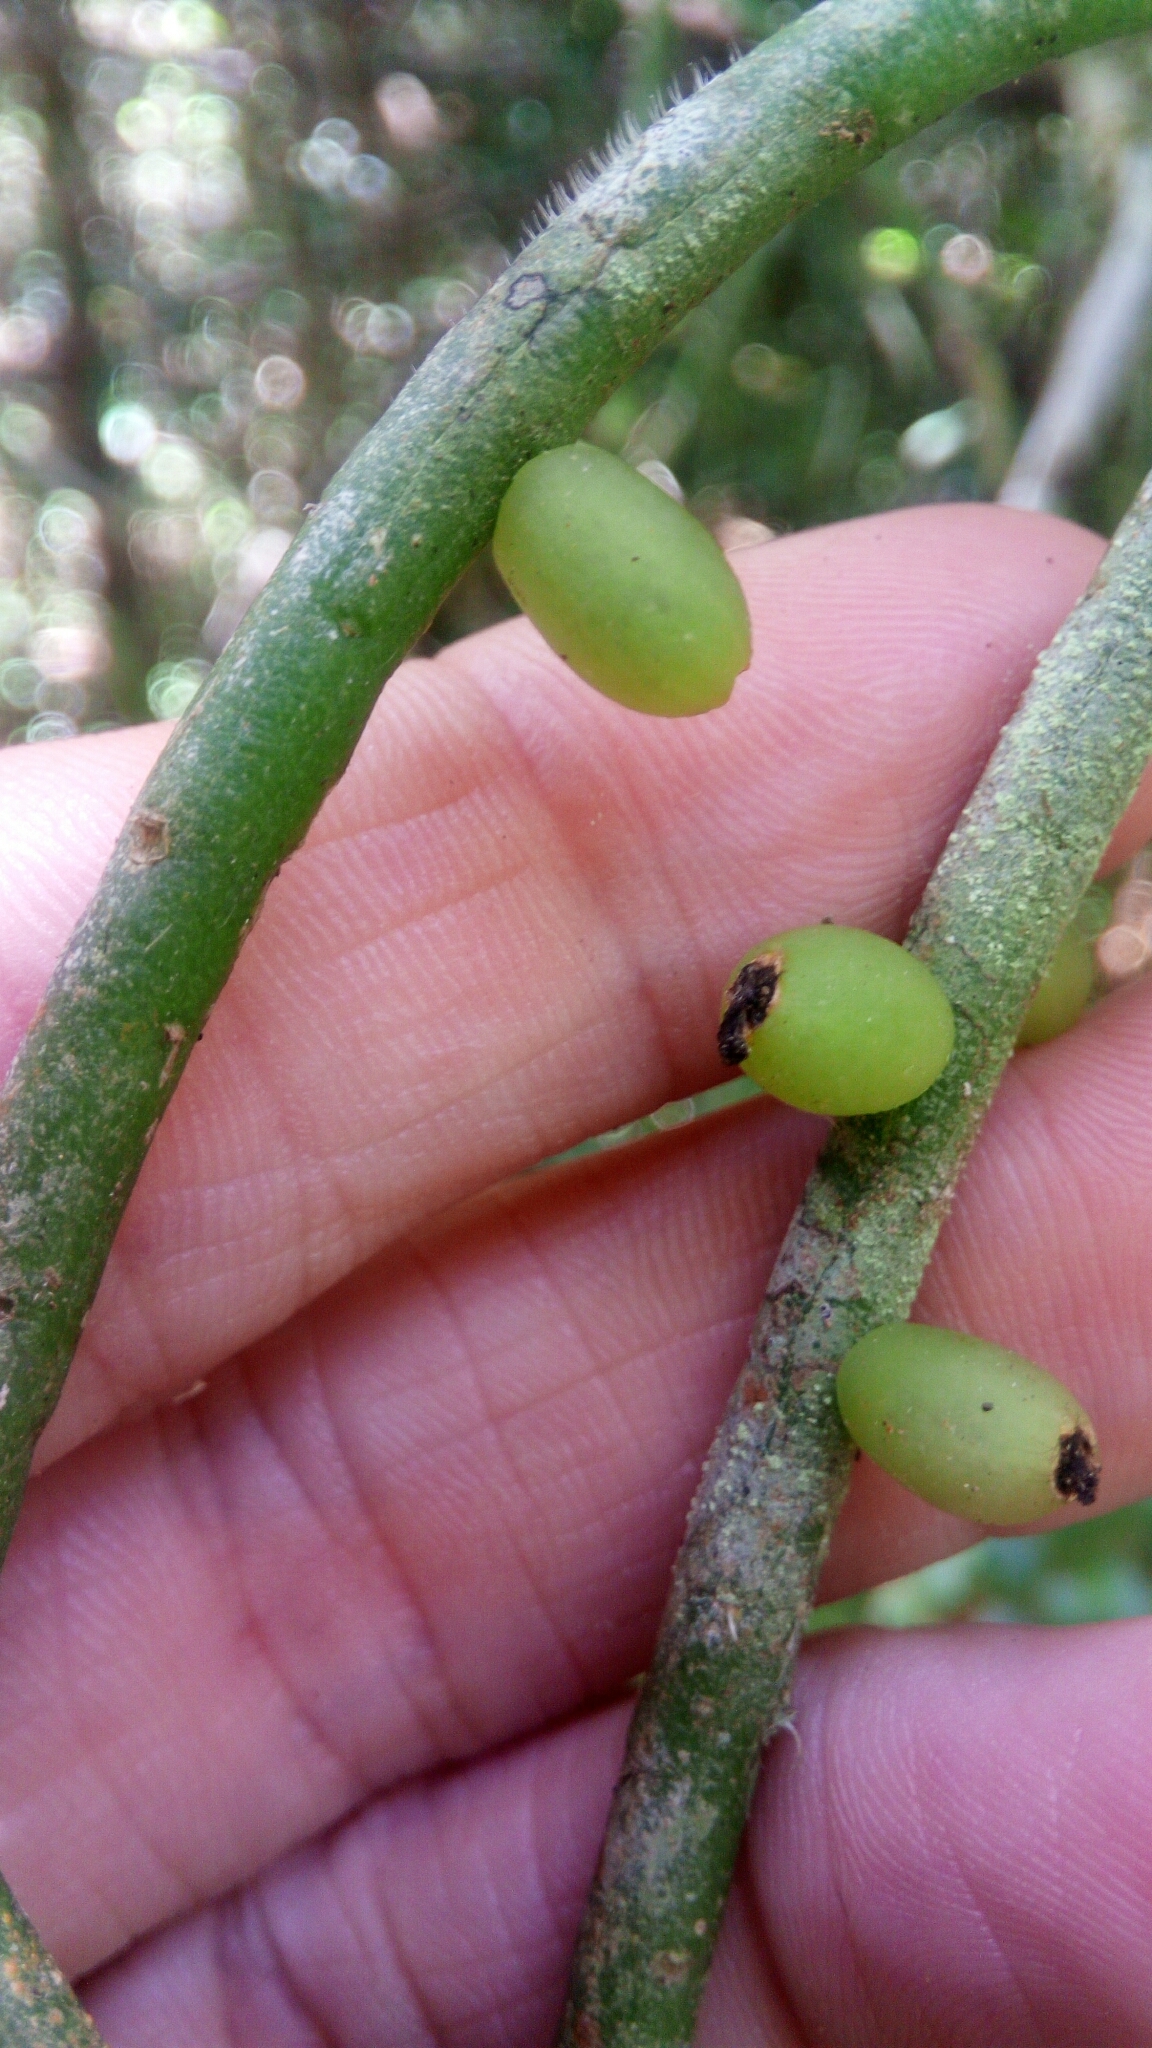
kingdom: Plantae
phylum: Tracheophyta
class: Magnoliopsida
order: Caryophyllales
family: Cactaceae
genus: Rhipsalis
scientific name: Rhipsalis baccifera
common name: Mistletoe cactus
